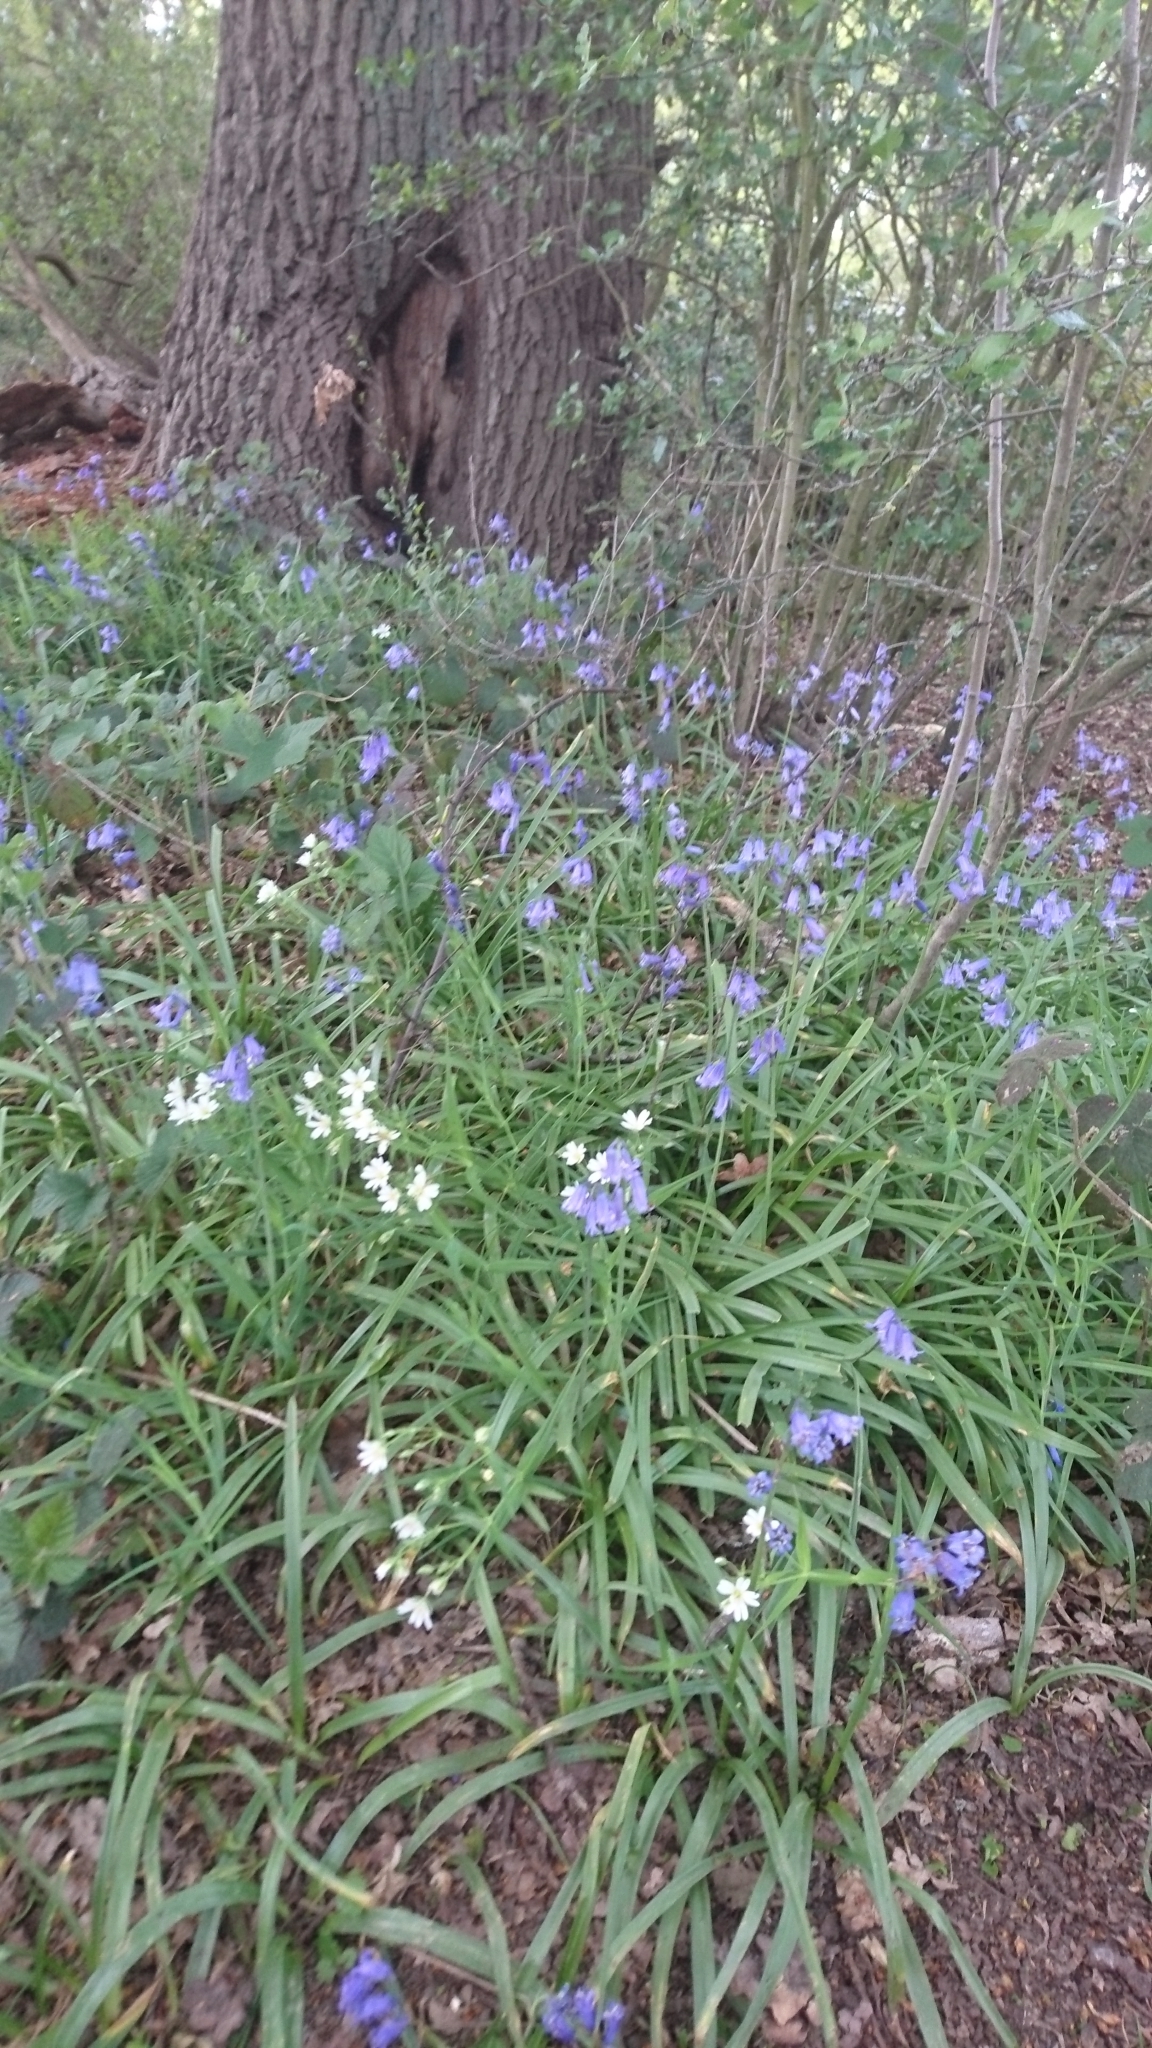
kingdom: Plantae
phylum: Tracheophyta
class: Liliopsida
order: Asparagales
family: Asparagaceae
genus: Hyacinthoides
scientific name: Hyacinthoides hispanica
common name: Spanish bluebell
